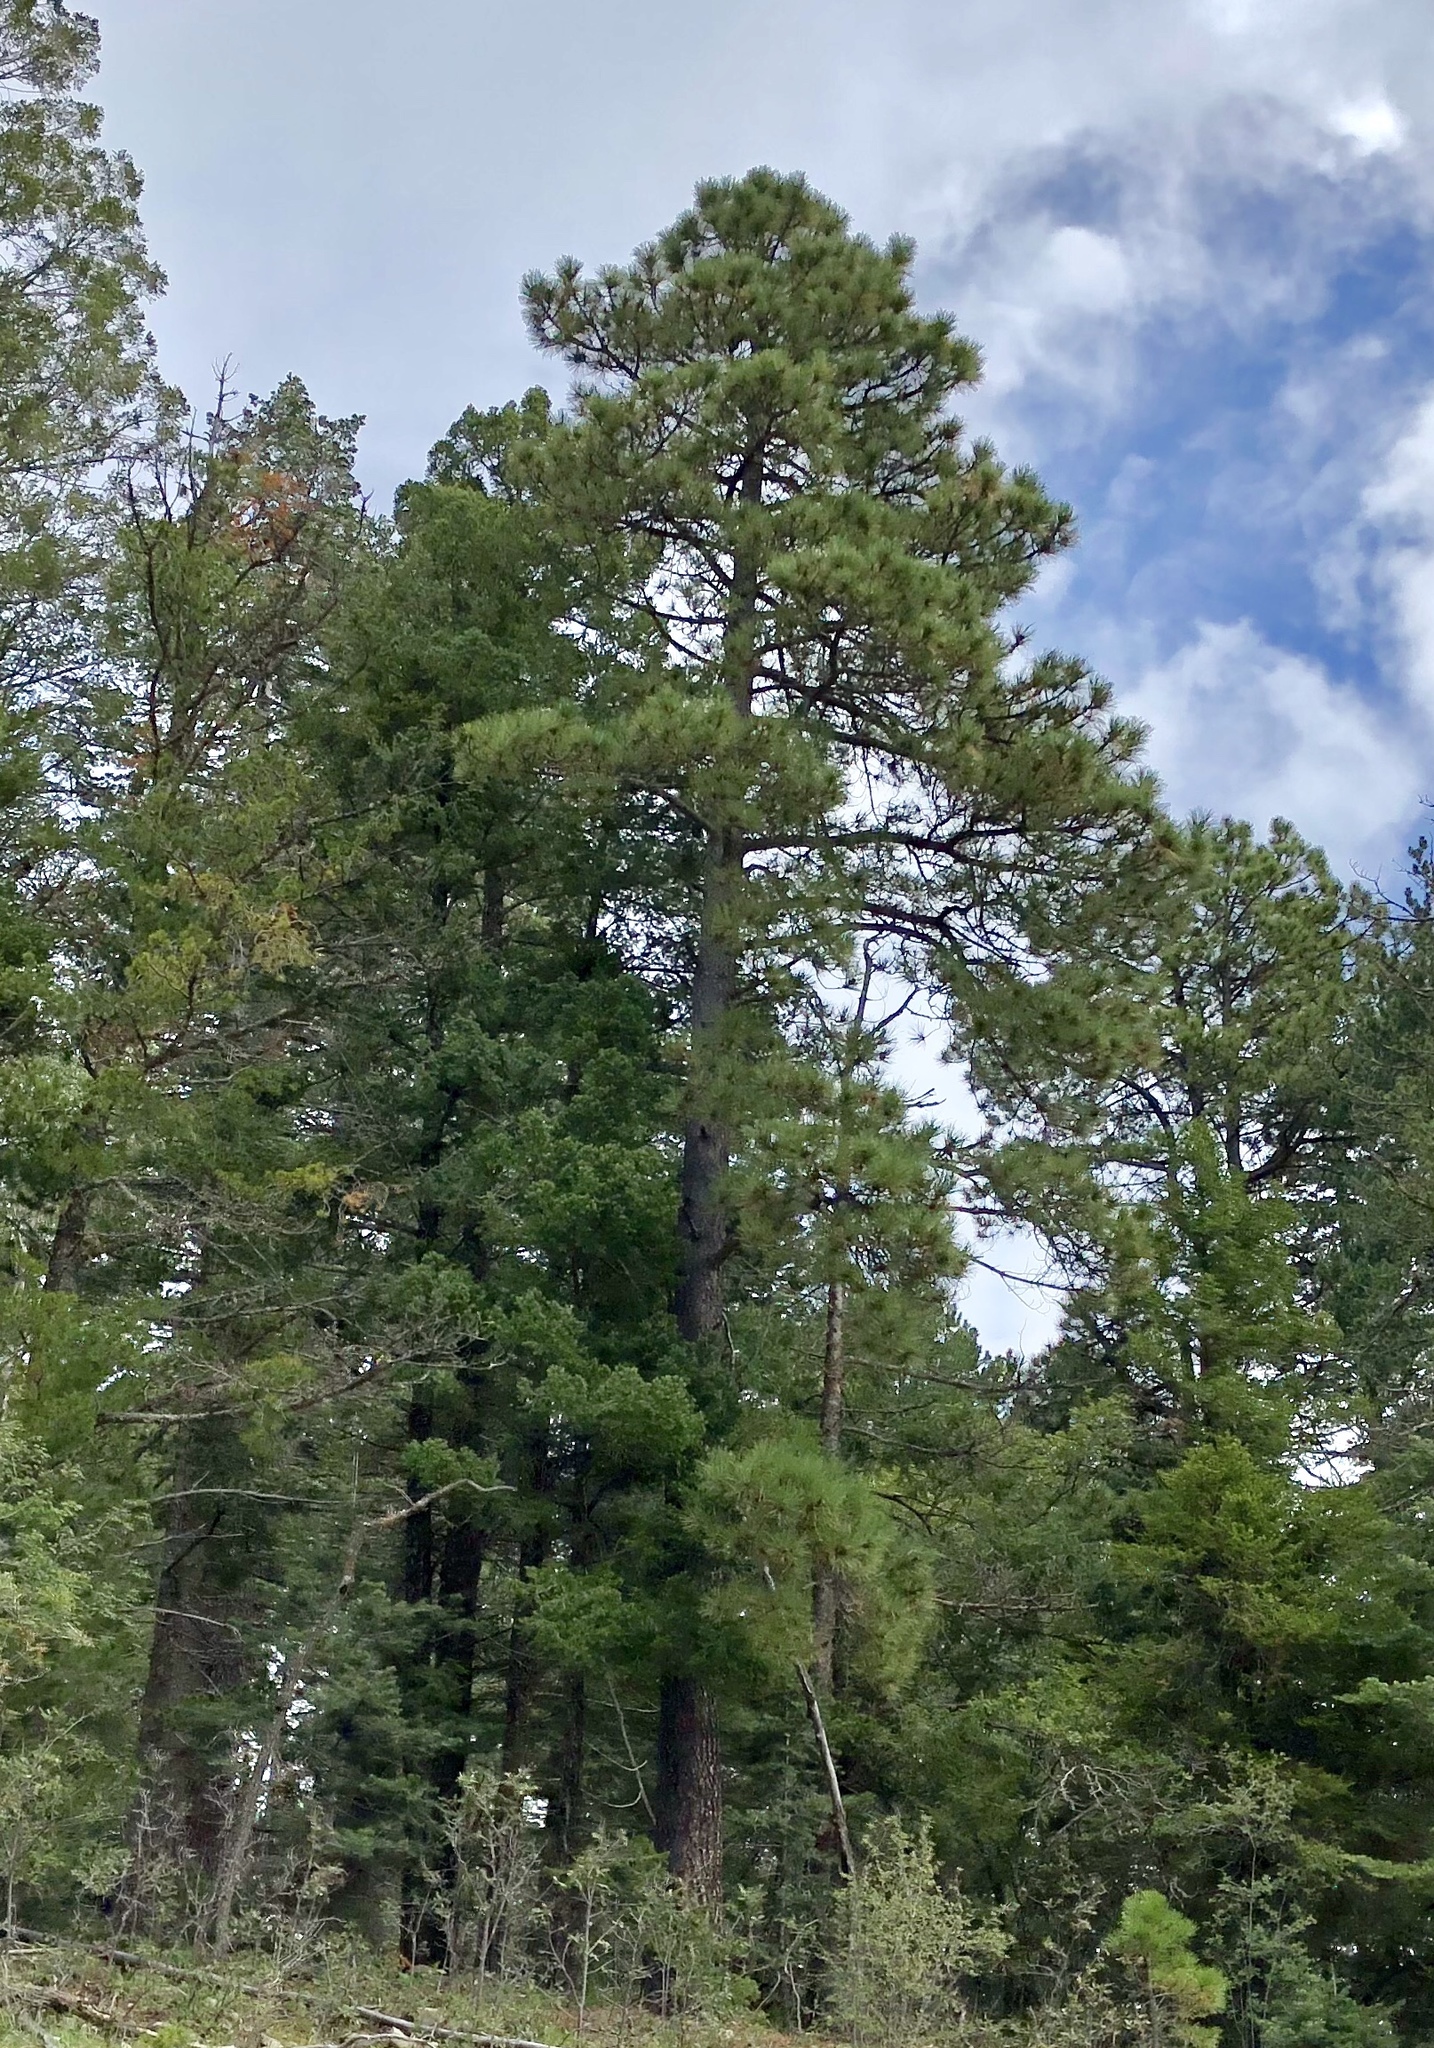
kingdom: Plantae
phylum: Tracheophyta
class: Pinopsida
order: Pinales
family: Pinaceae
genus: Pinus
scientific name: Pinus ponderosa
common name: Western yellow-pine
